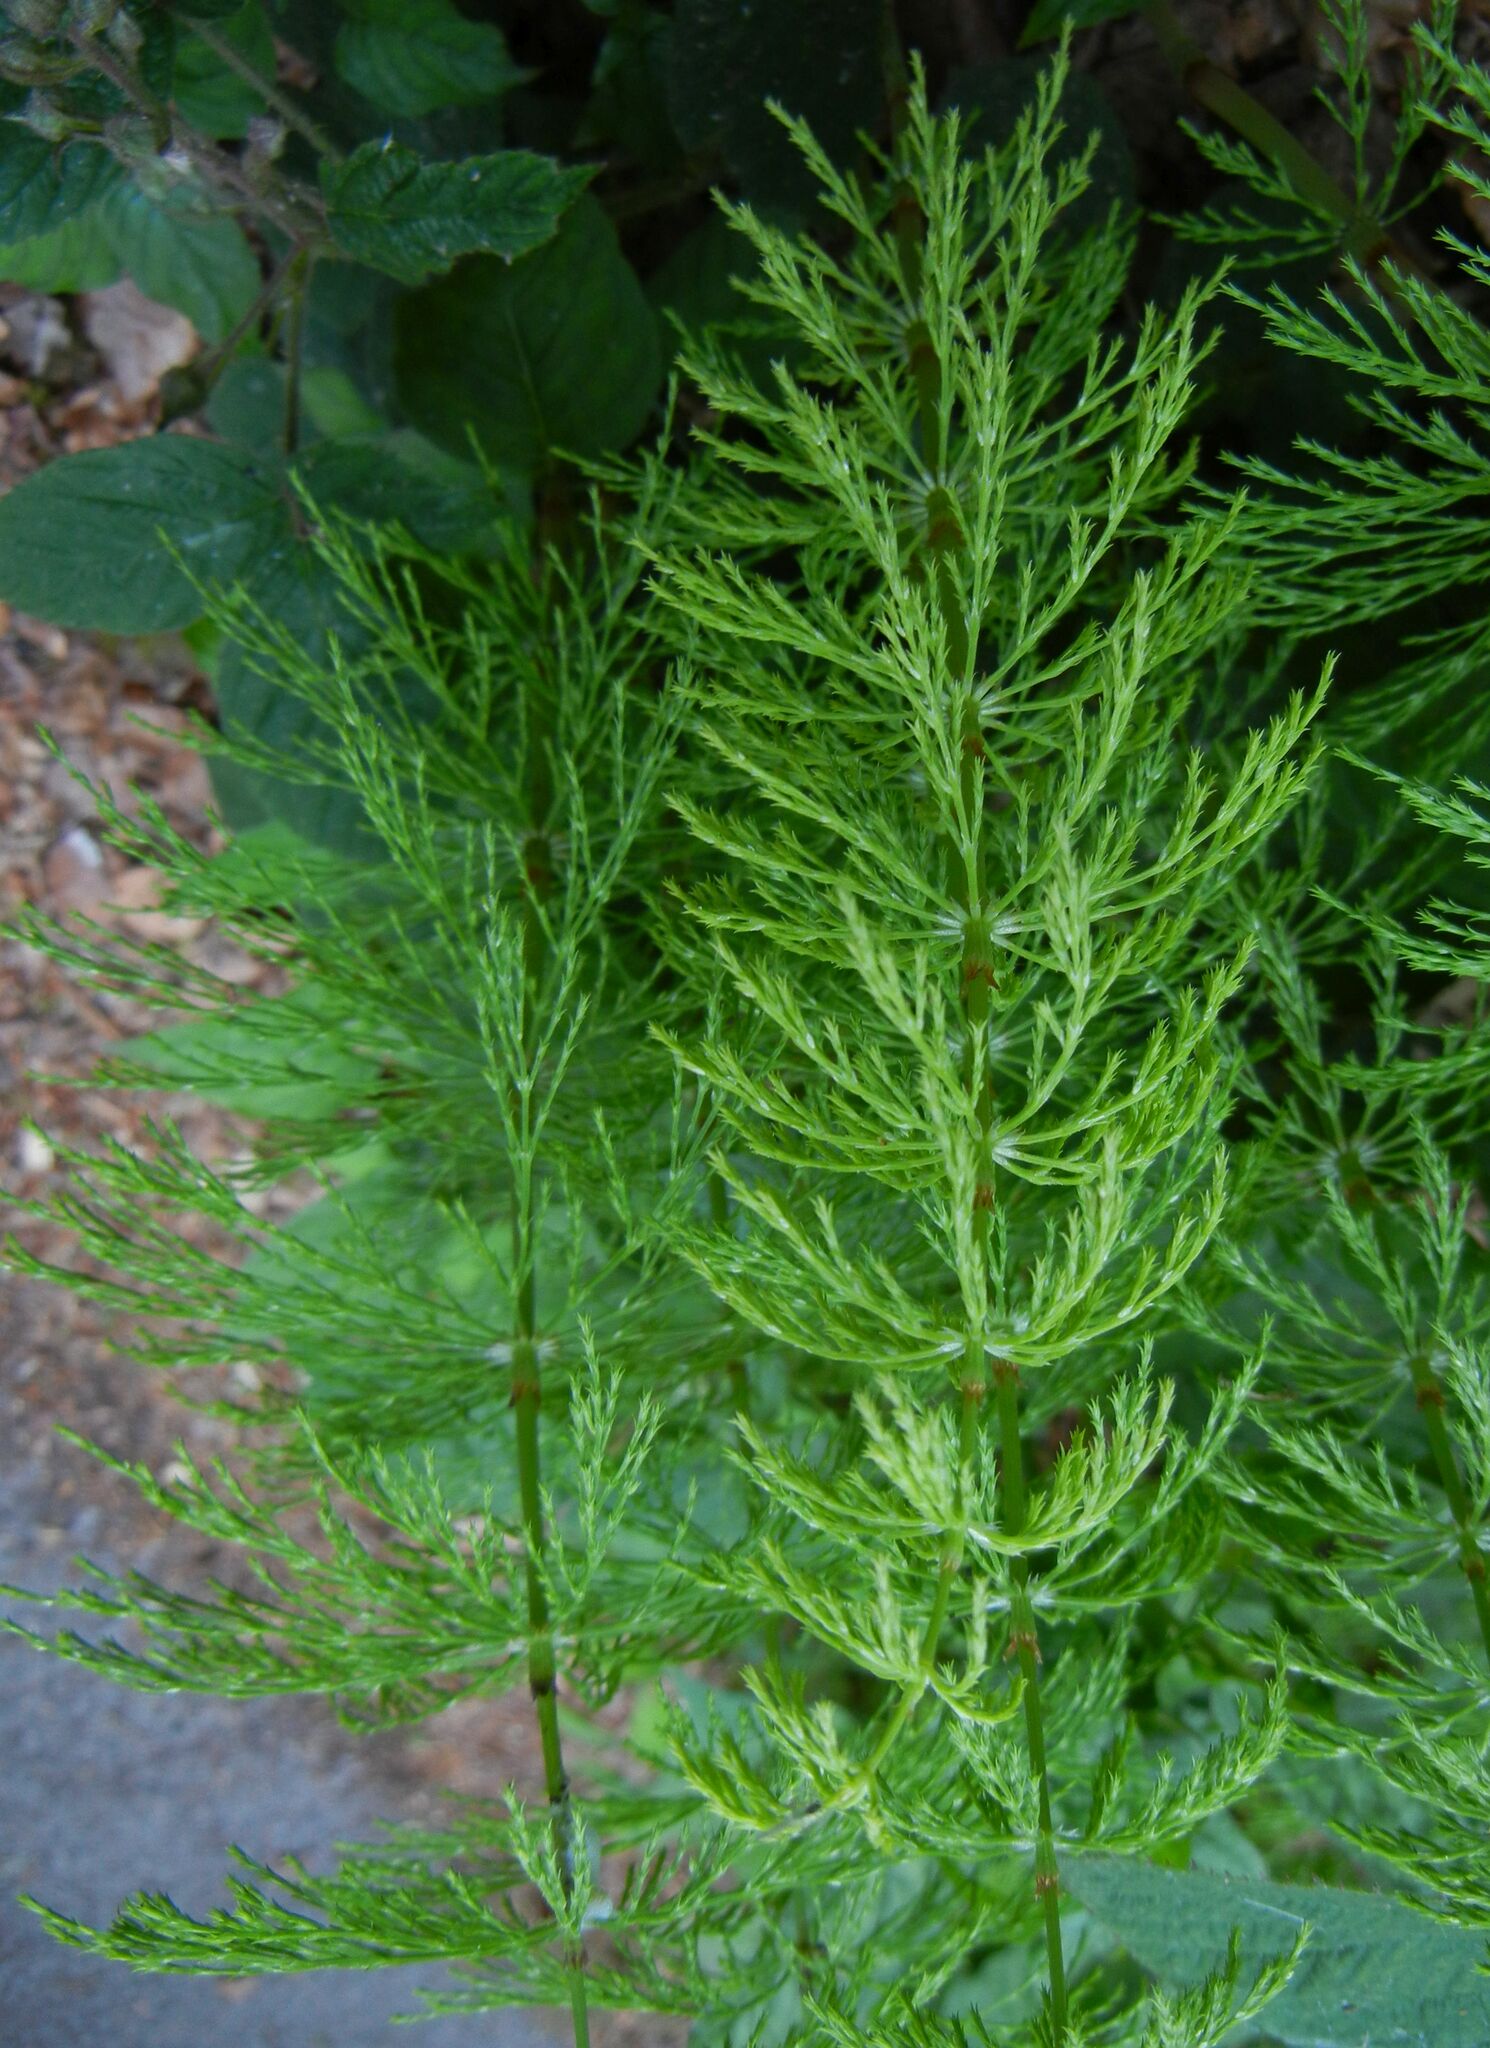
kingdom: Plantae
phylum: Tracheophyta
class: Polypodiopsida
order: Equisetales
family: Equisetaceae
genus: Equisetum
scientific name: Equisetum sylvaticum
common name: Wood horsetail
